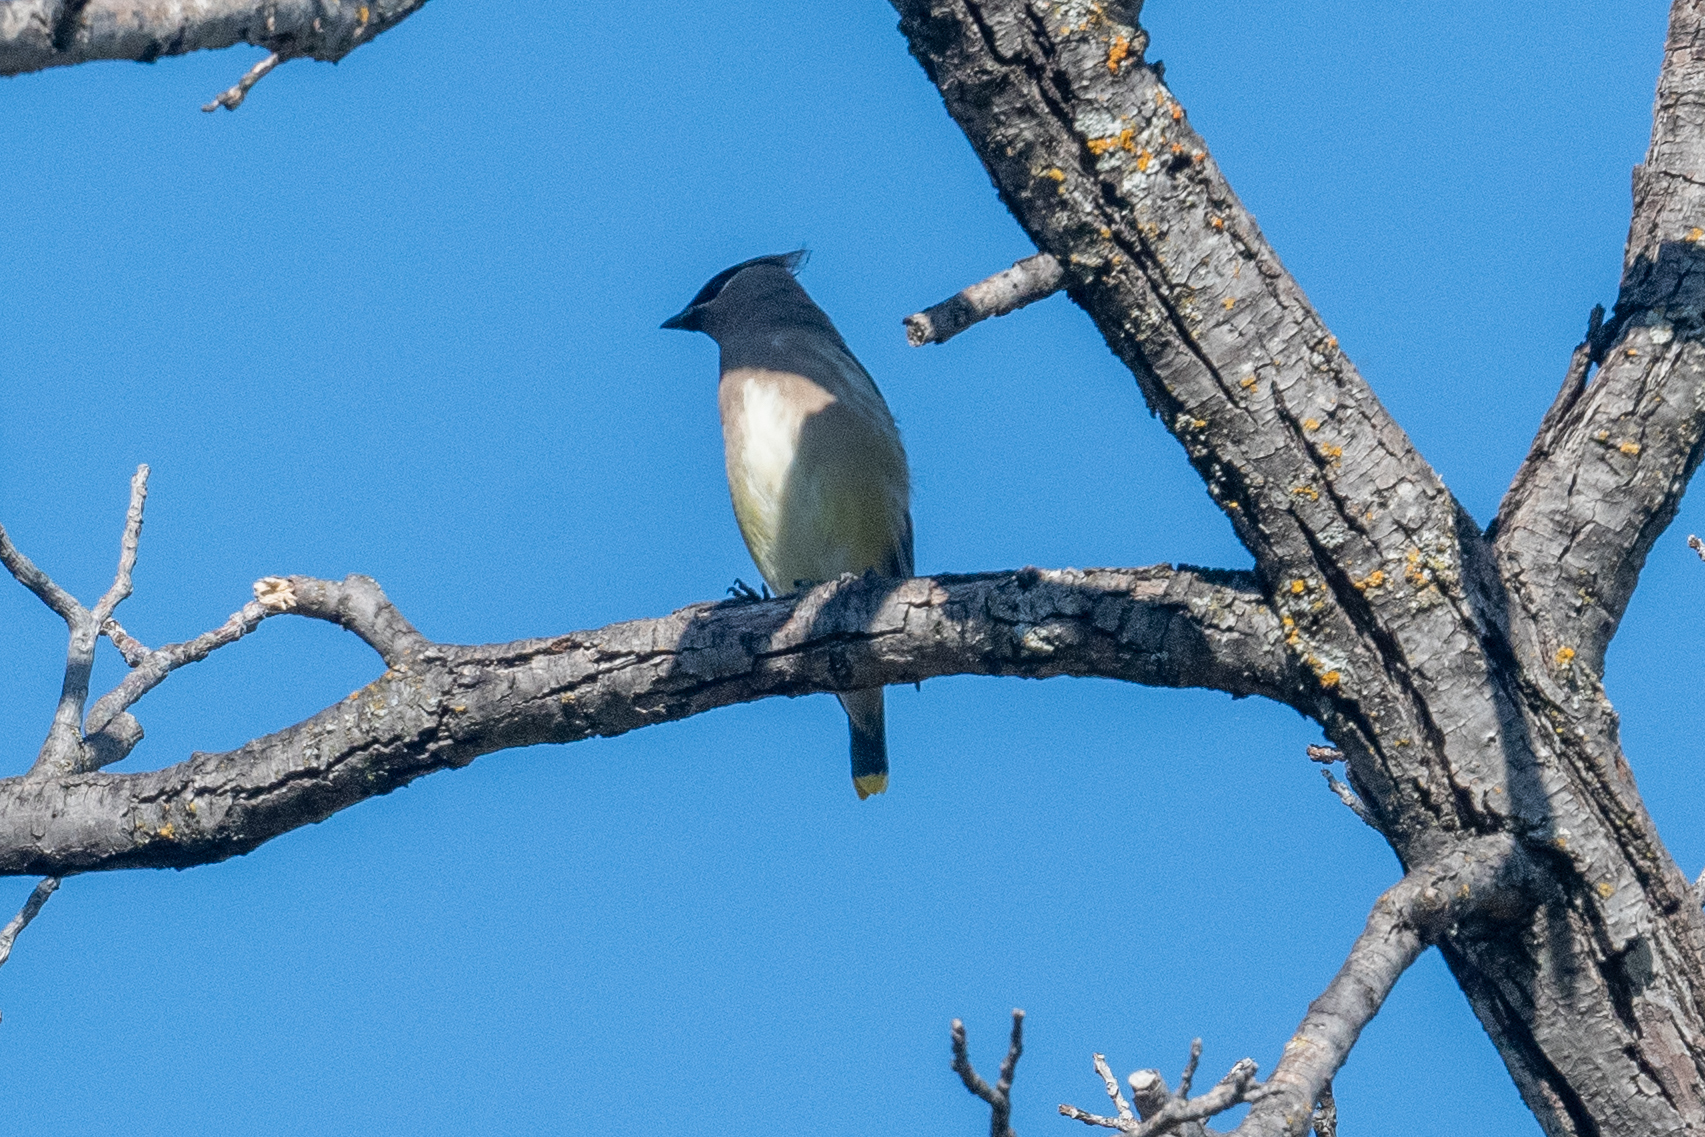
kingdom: Animalia
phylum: Chordata
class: Aves
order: Passeriformes
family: Bombycillidae
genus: Bombycilla
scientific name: Bombycilla cedrorum
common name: Cedar waxwing
